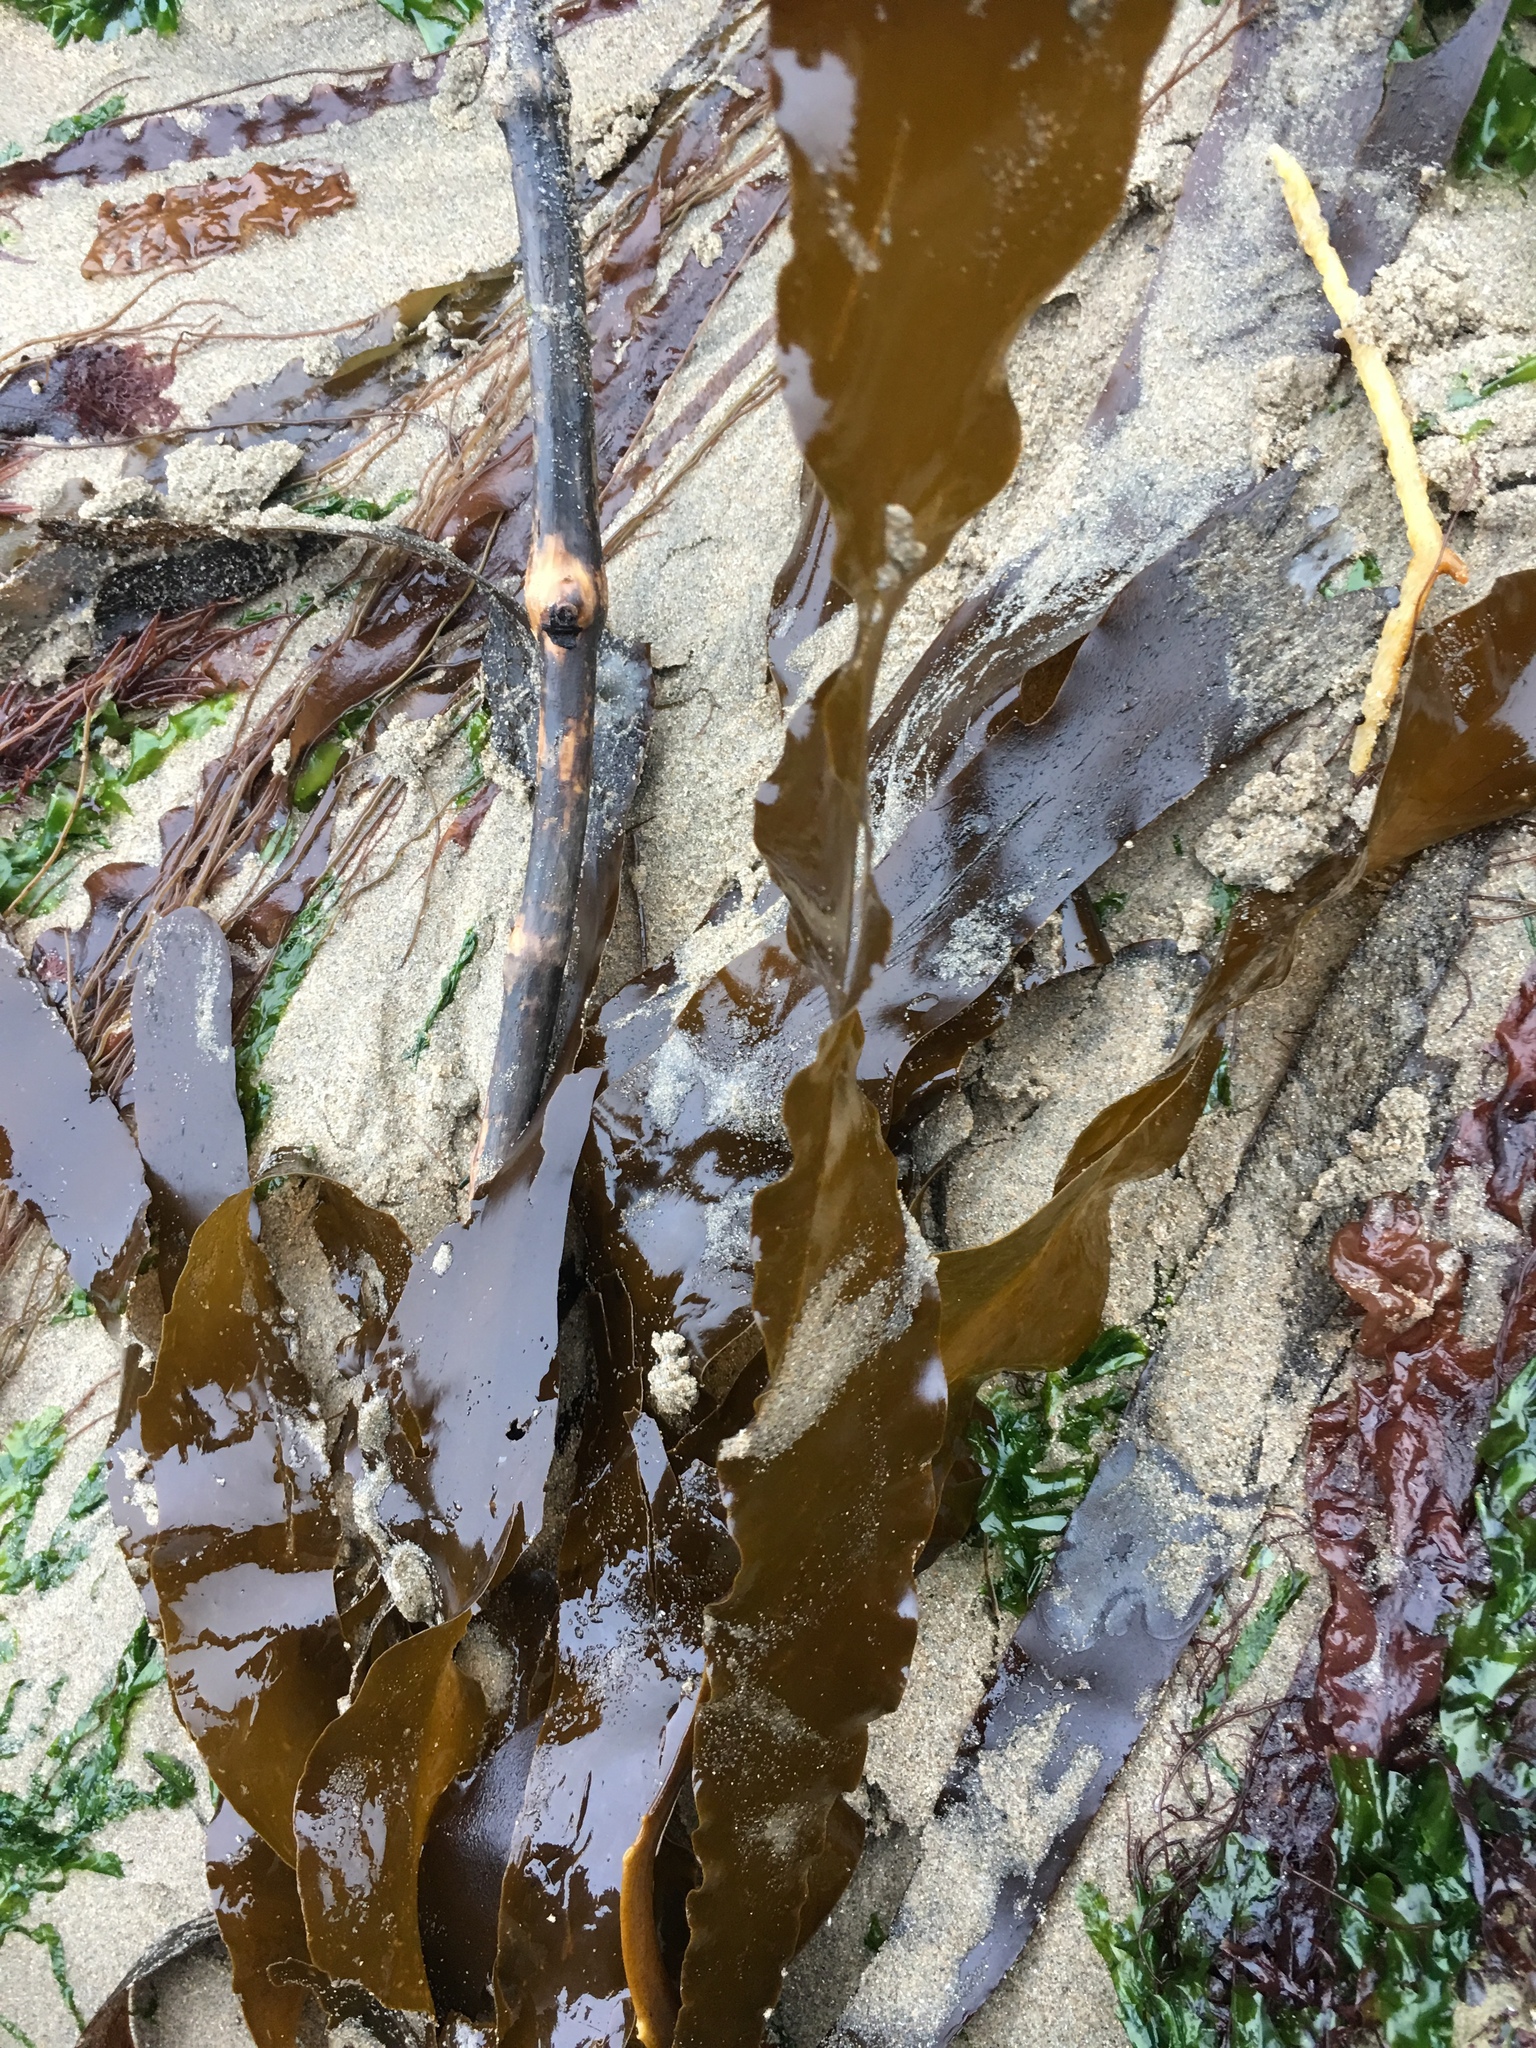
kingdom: Chromista
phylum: Ochrophyta
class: Phaeophyceae
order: Laminariales
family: Alariaceae
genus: Pterygophora
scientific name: Pterygophora californica
